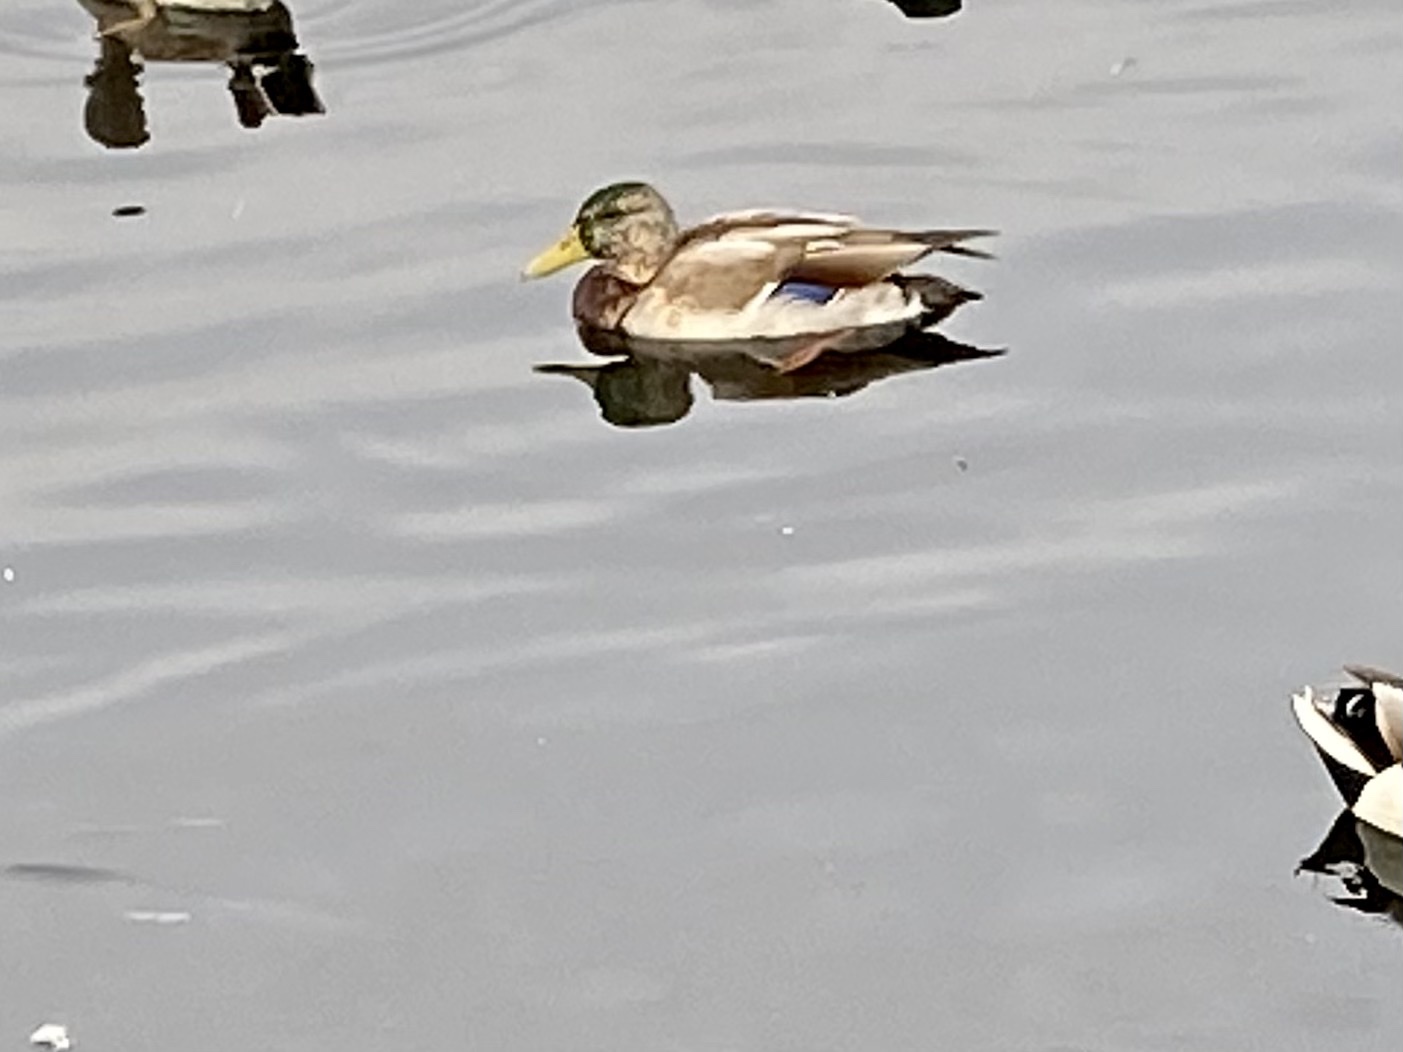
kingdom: Animalia
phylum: Chordata
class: Aves
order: Anseriformes
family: Anatidae
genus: Anas
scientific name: Anas platyrhynchos
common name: Mallard
